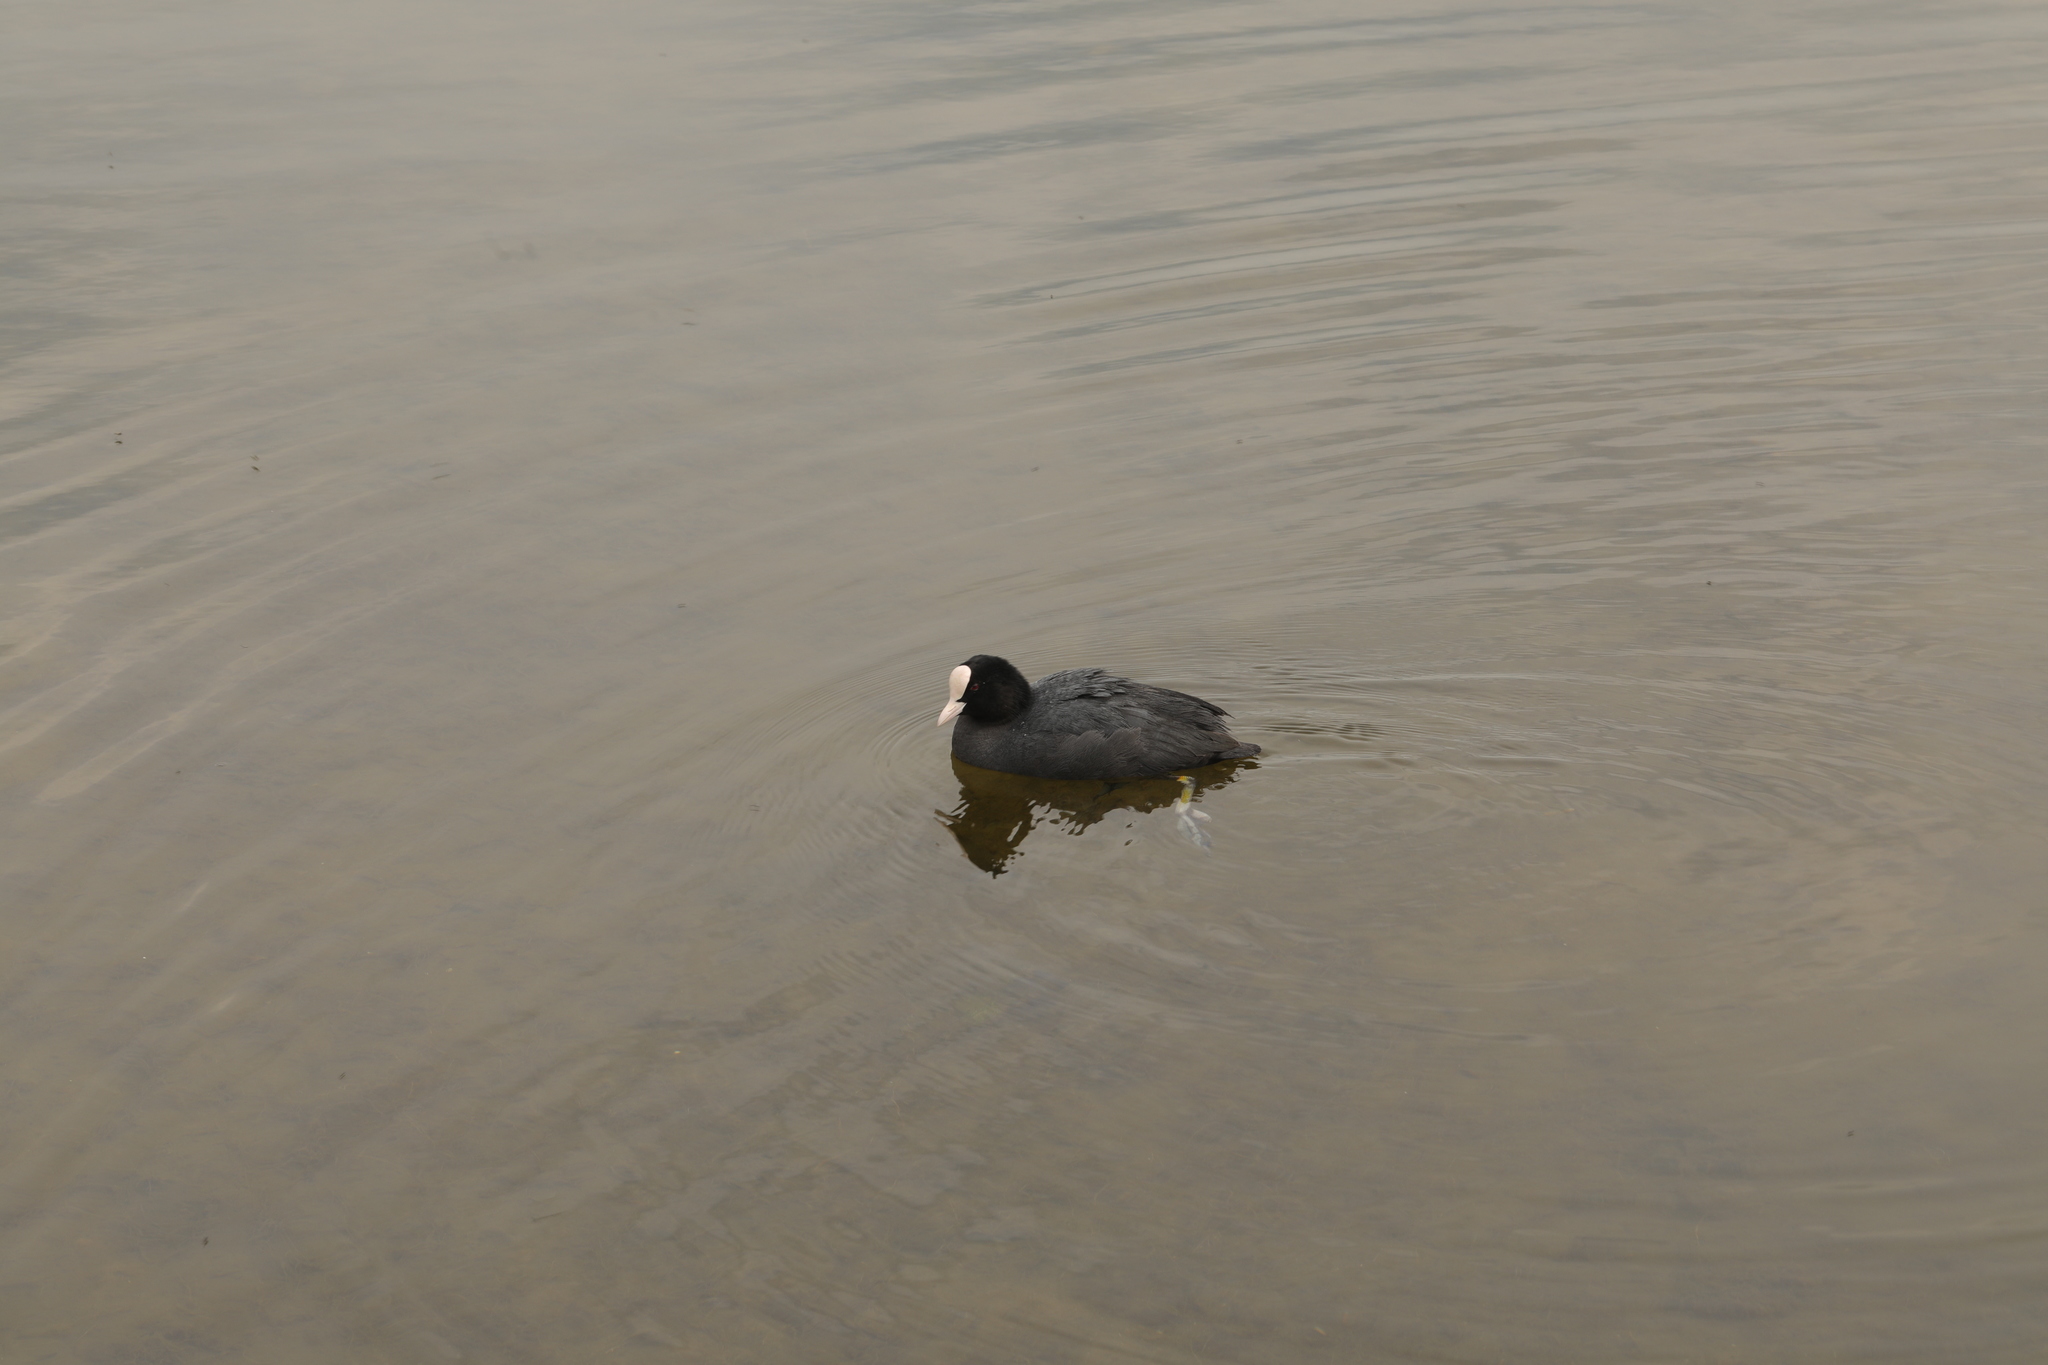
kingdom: Animalia
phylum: Chordata
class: Aves
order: Gruiformes
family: Rallidae
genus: Fulica
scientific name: Fulica atra
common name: Eurasian coot
